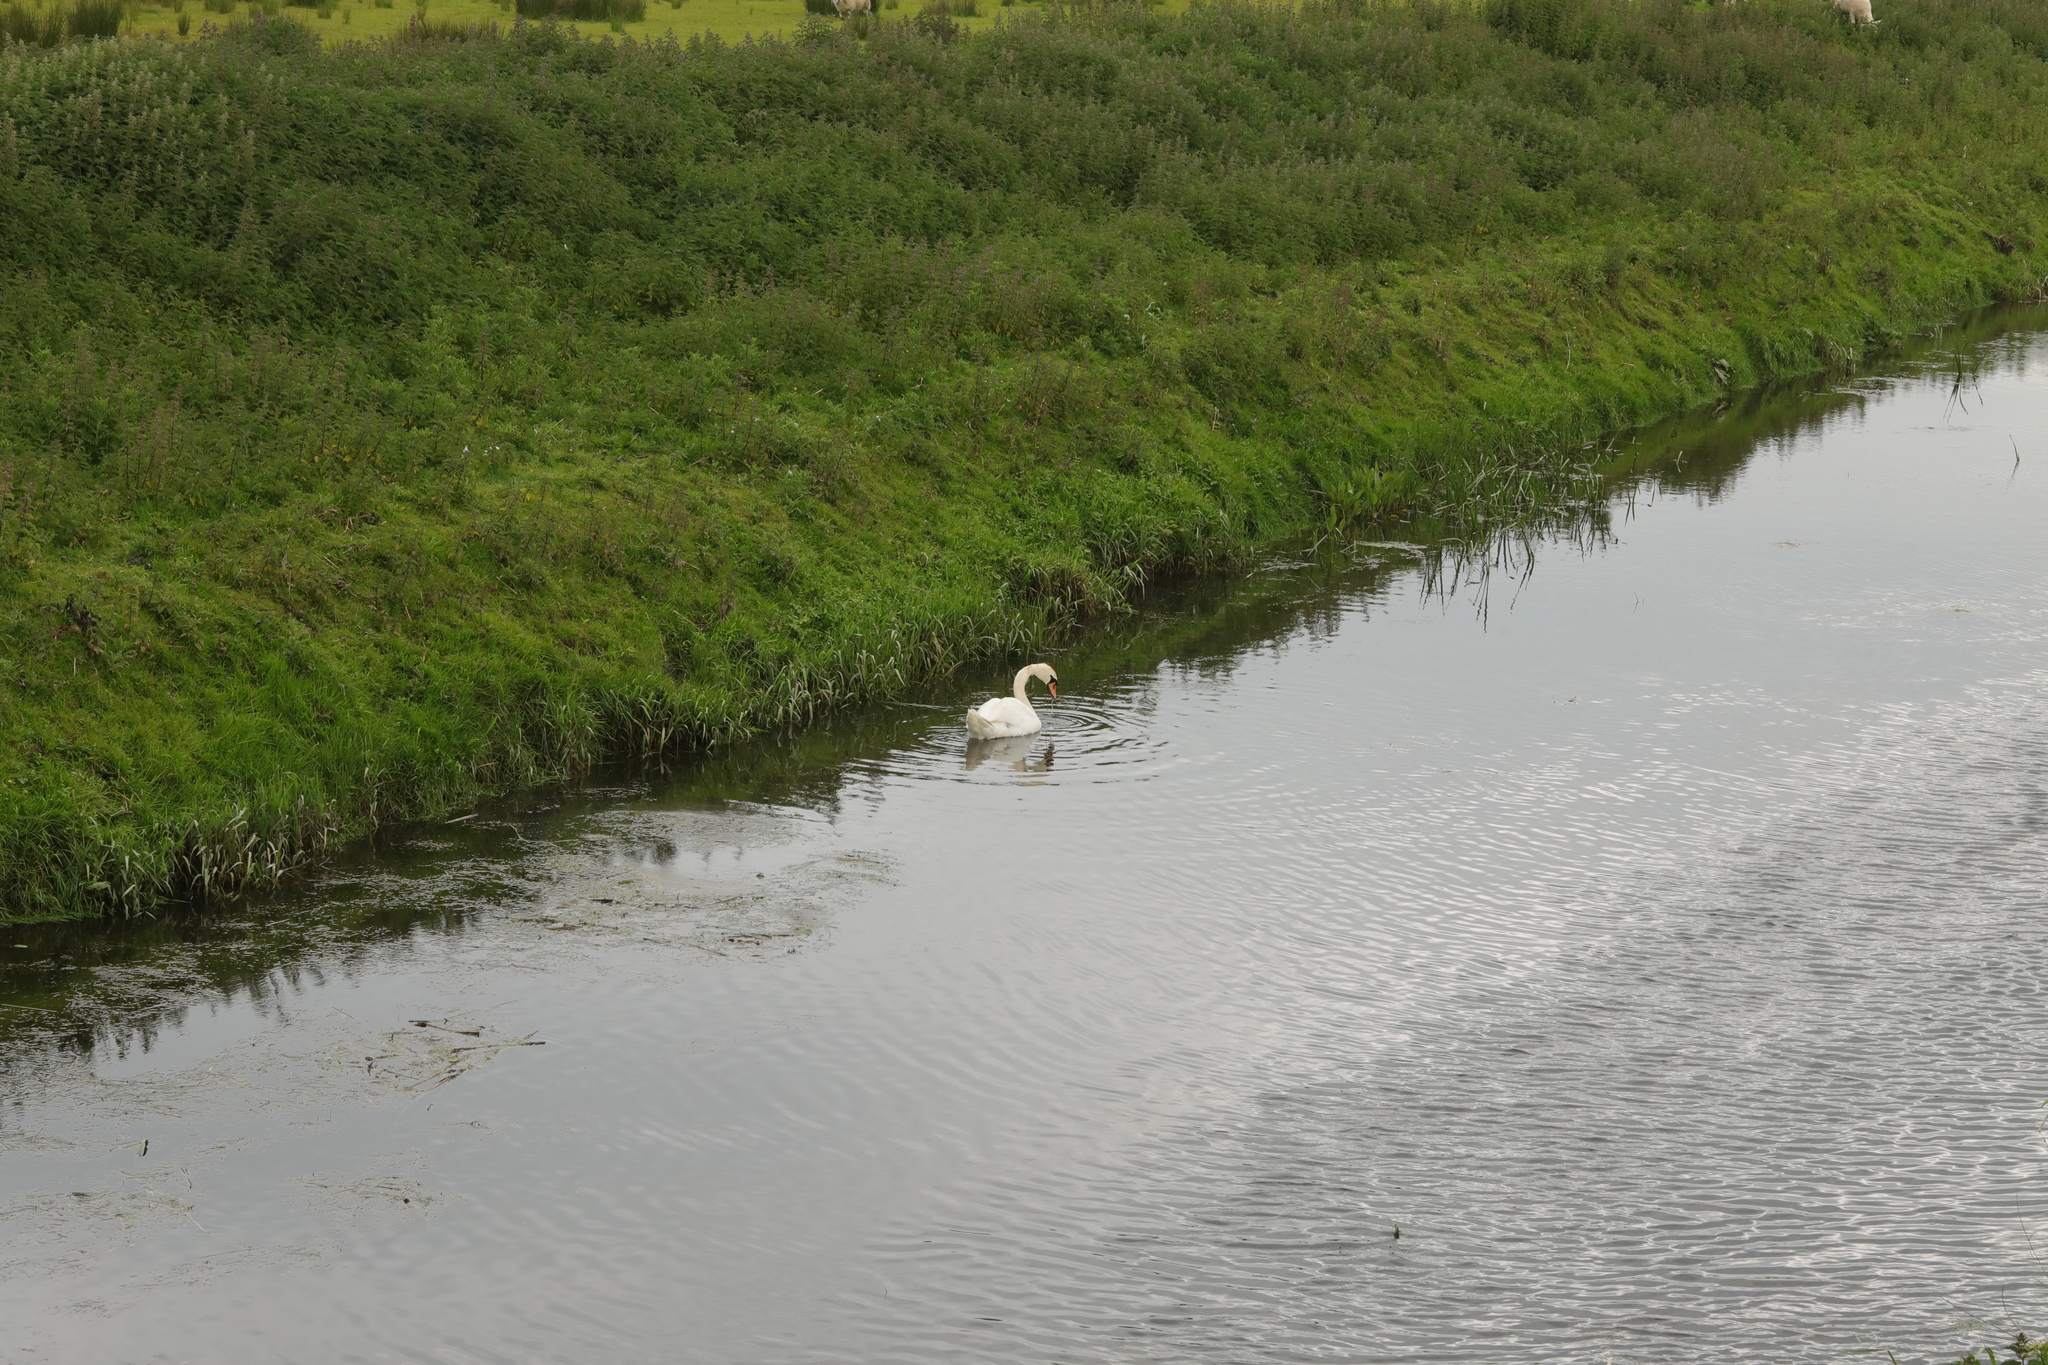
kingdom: Animalia
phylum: Chordata
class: Aves
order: Anseriformes
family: Anatidae
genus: Cygnus
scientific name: Cygnus olor
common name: Mute swan
